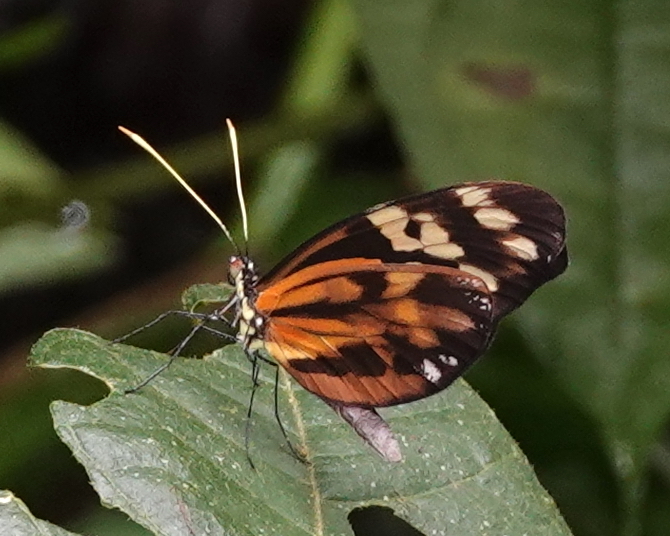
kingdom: Animalia
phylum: Arthropoda
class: Insecta
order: Lepidoptera
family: Pieridae
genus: Dismorphia
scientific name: Dismorphia amphione
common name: Tiger mimic-white
